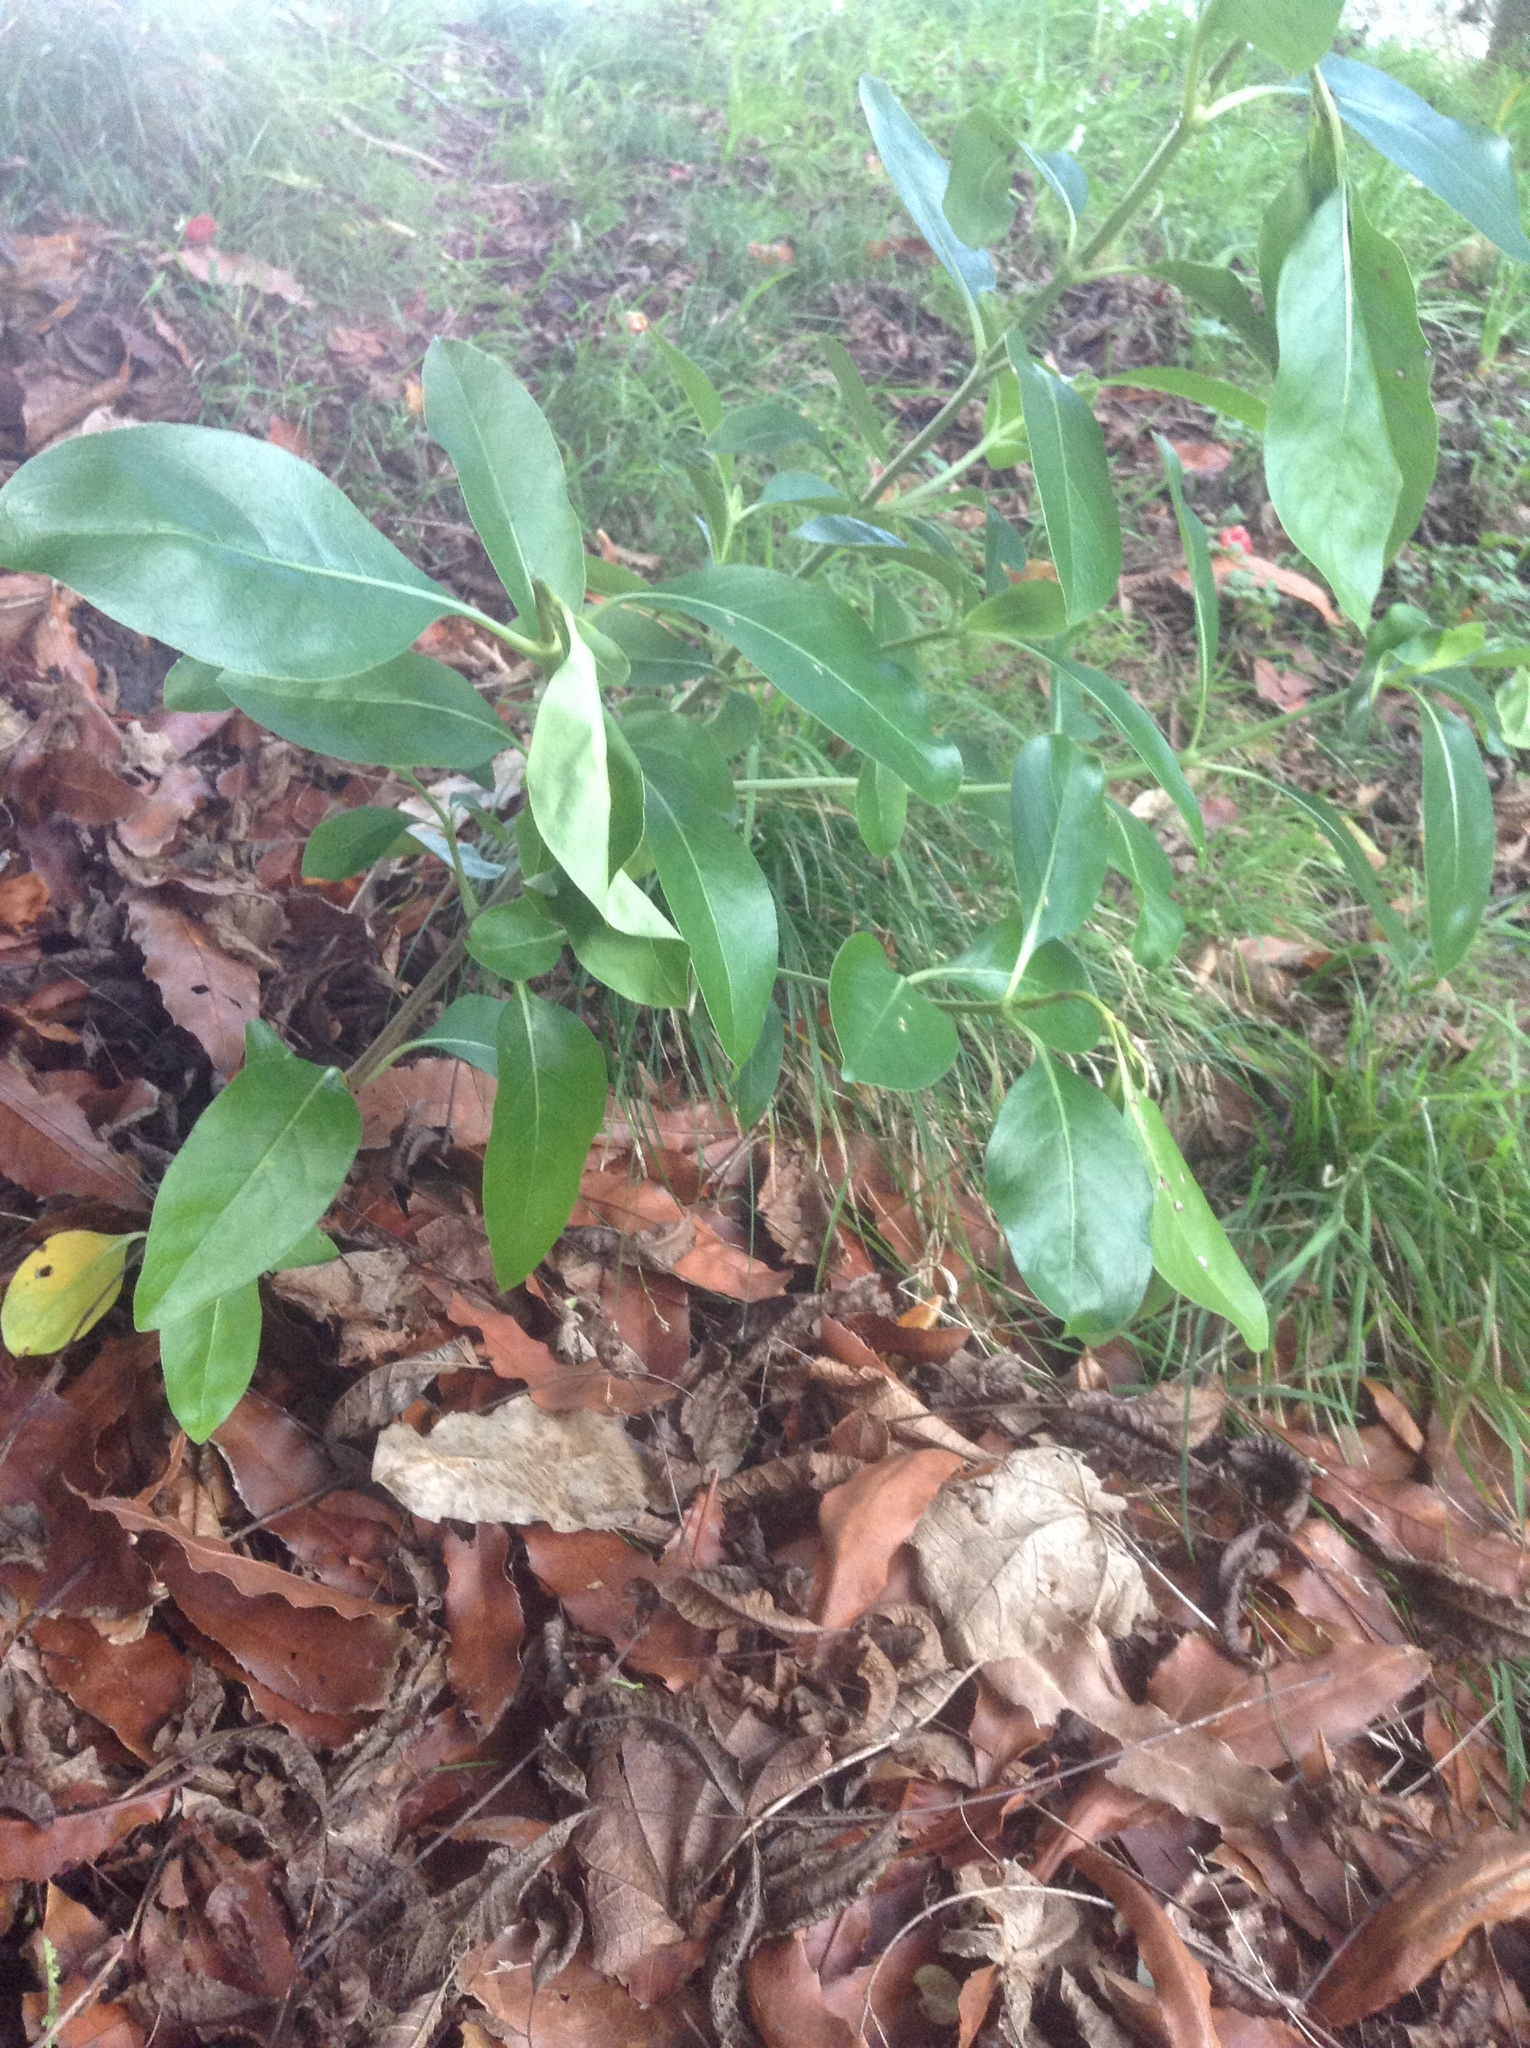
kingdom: Plantae
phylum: Tracheophyta
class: Magnoliopsida
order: Gentianales
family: Rubiaceae
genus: Coprosma
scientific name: Coprosma macrocarpa
